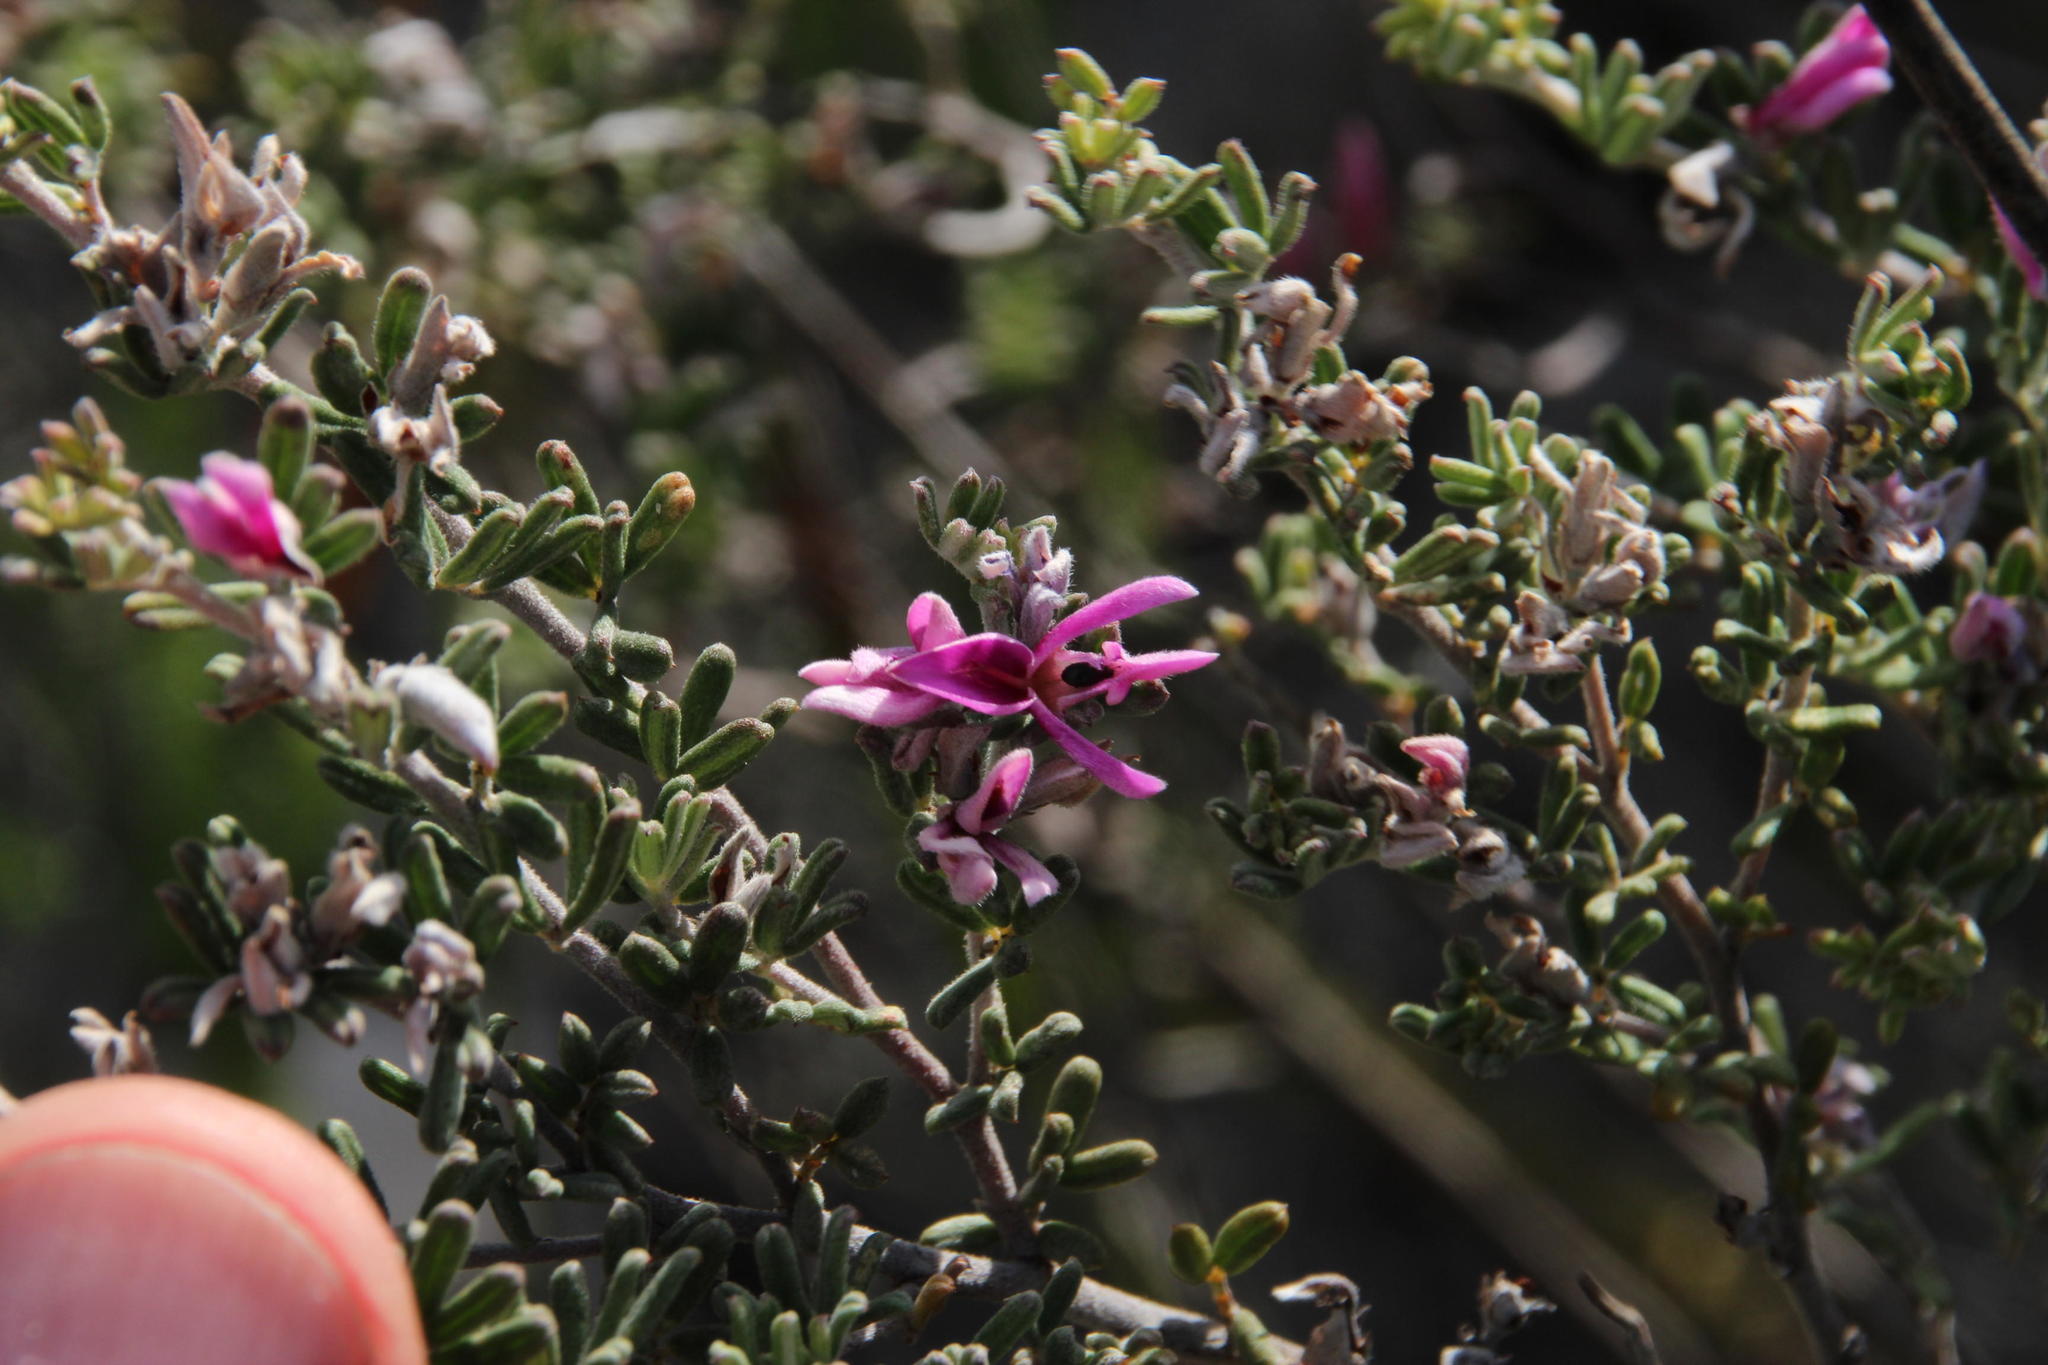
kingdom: Plantae
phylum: Tracheophyta
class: Magnoliopsida
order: Fabales
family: Fabaceae
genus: Indigofera
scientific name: Indigofera
